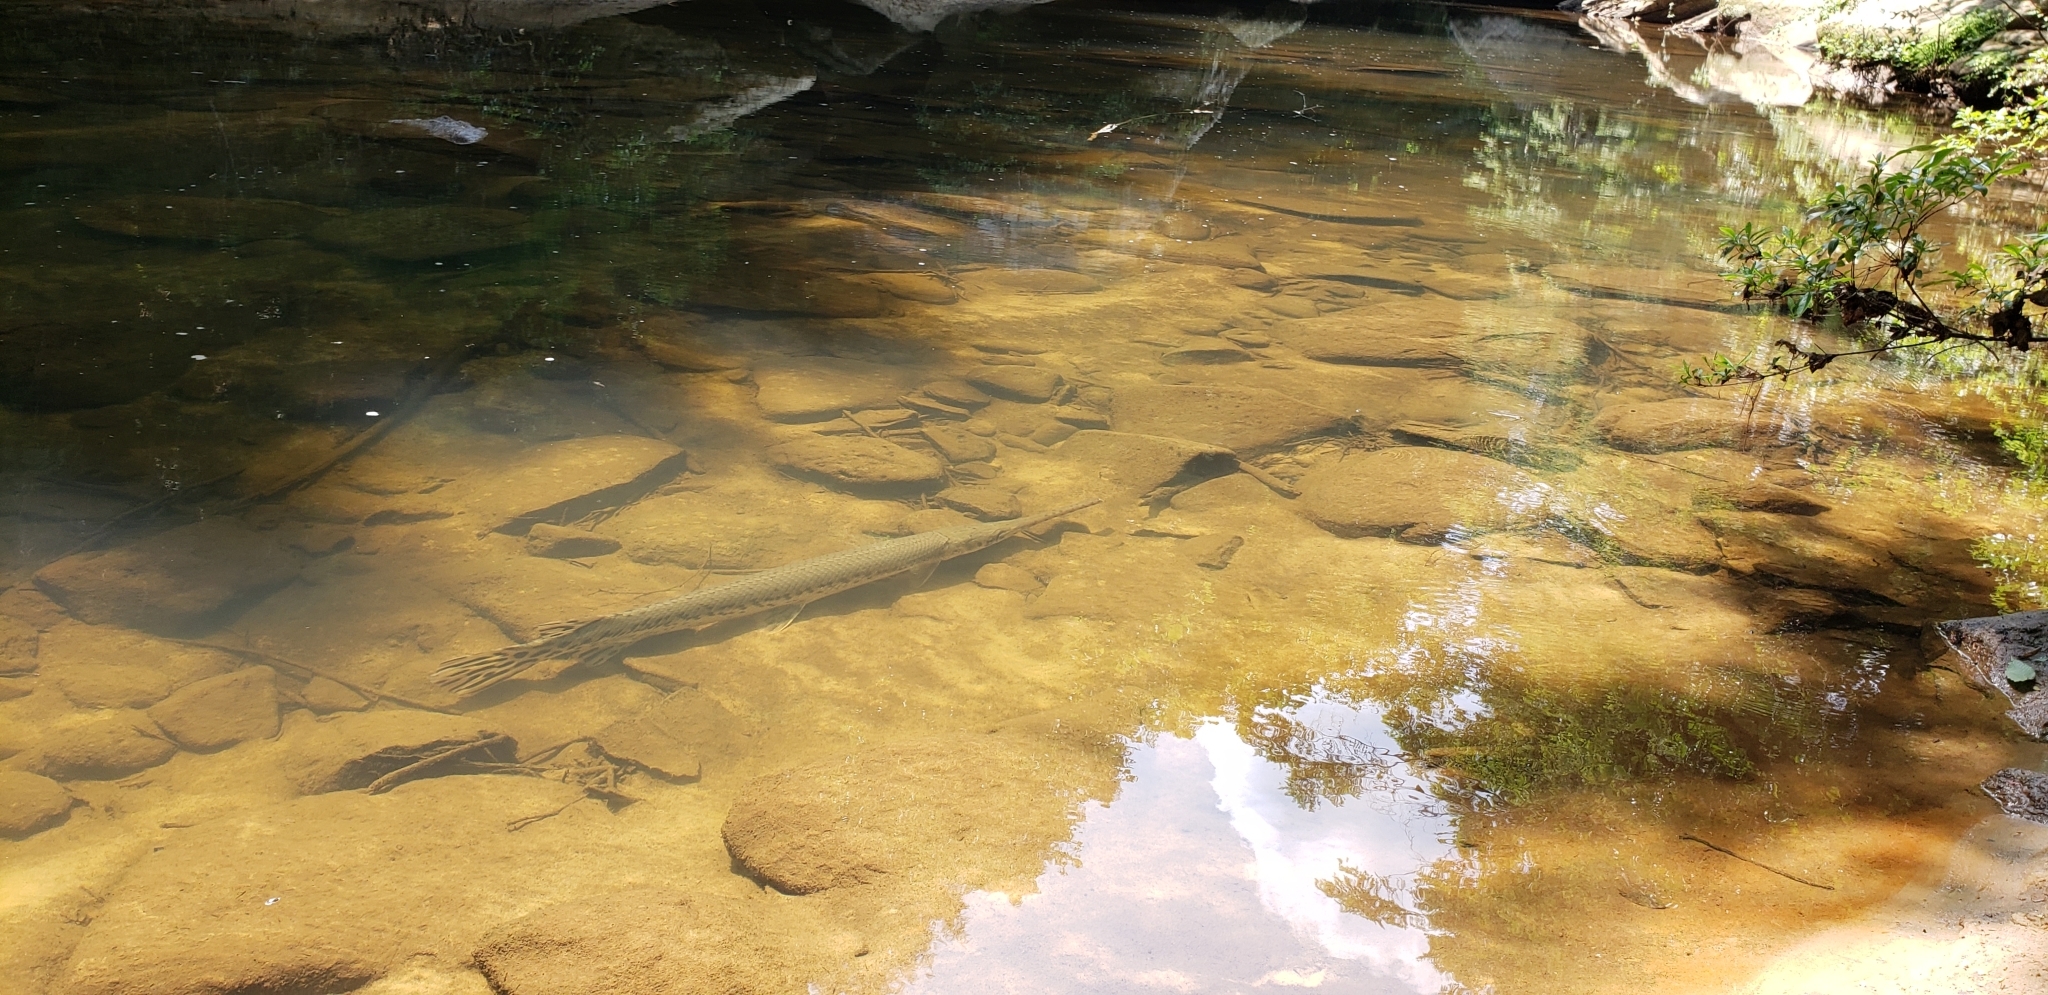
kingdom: Animalia
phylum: Chordata
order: Lepisosteiformes
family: Lepisosteidae
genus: Lepisosteus
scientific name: Lepisosteus osseus
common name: Longnose gar
